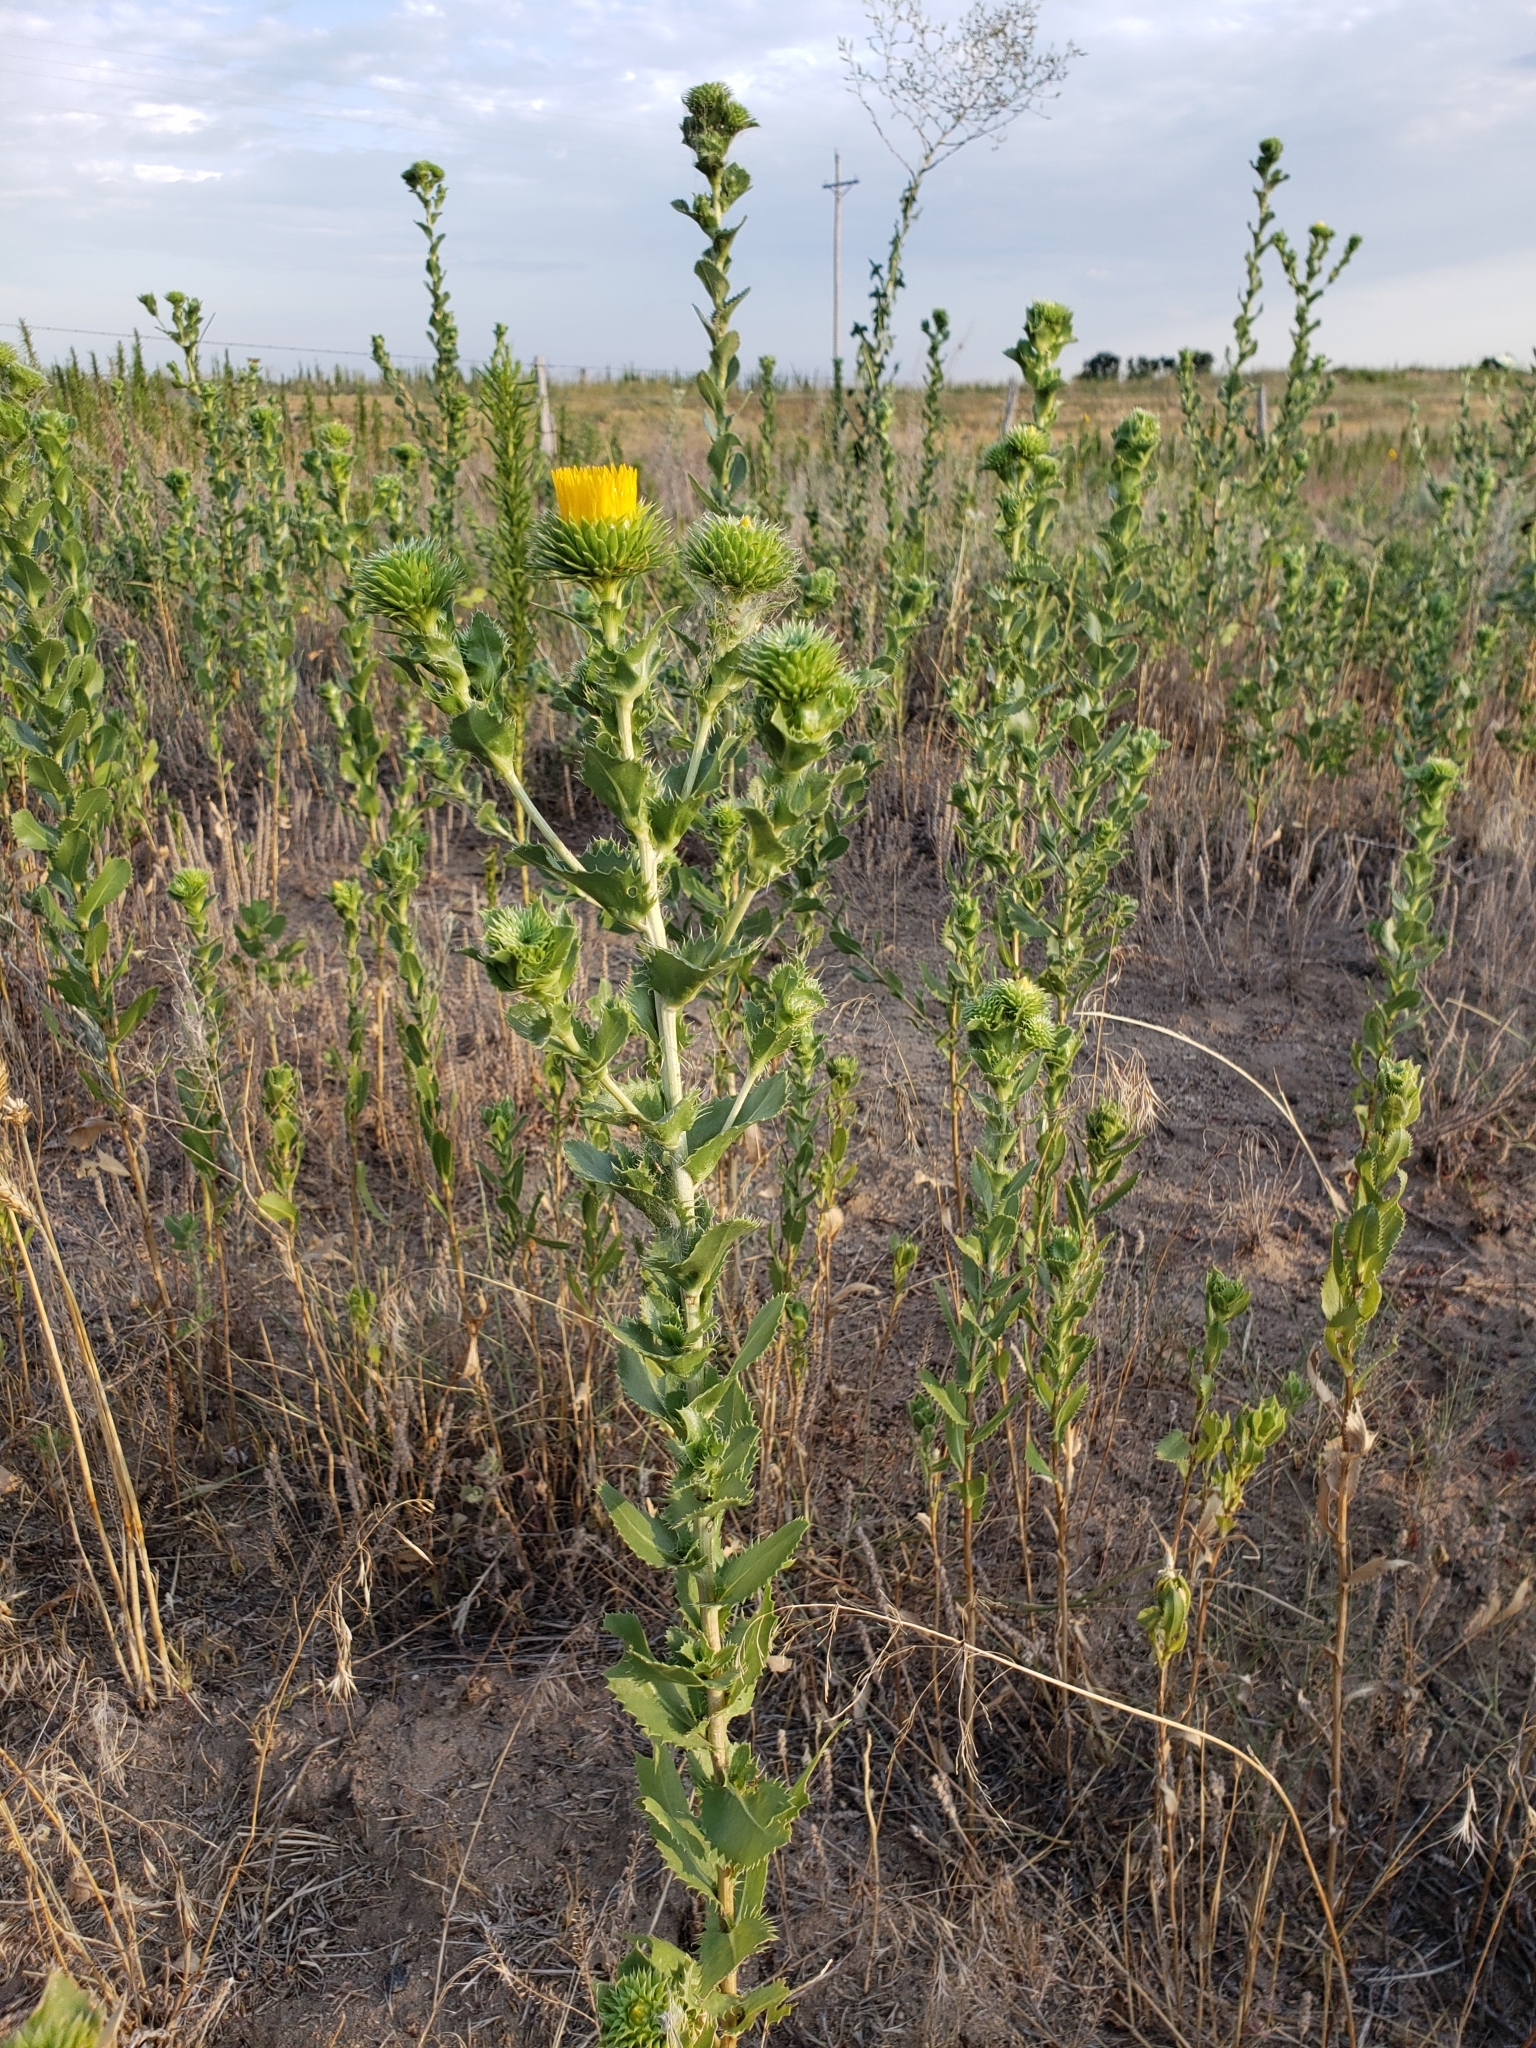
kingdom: Plantae
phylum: Tracheophyta
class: Magnoliopsida
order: Asterales
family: Asteraceae
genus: Grindelia
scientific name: Grindelia ciliata
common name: Goldenweed
